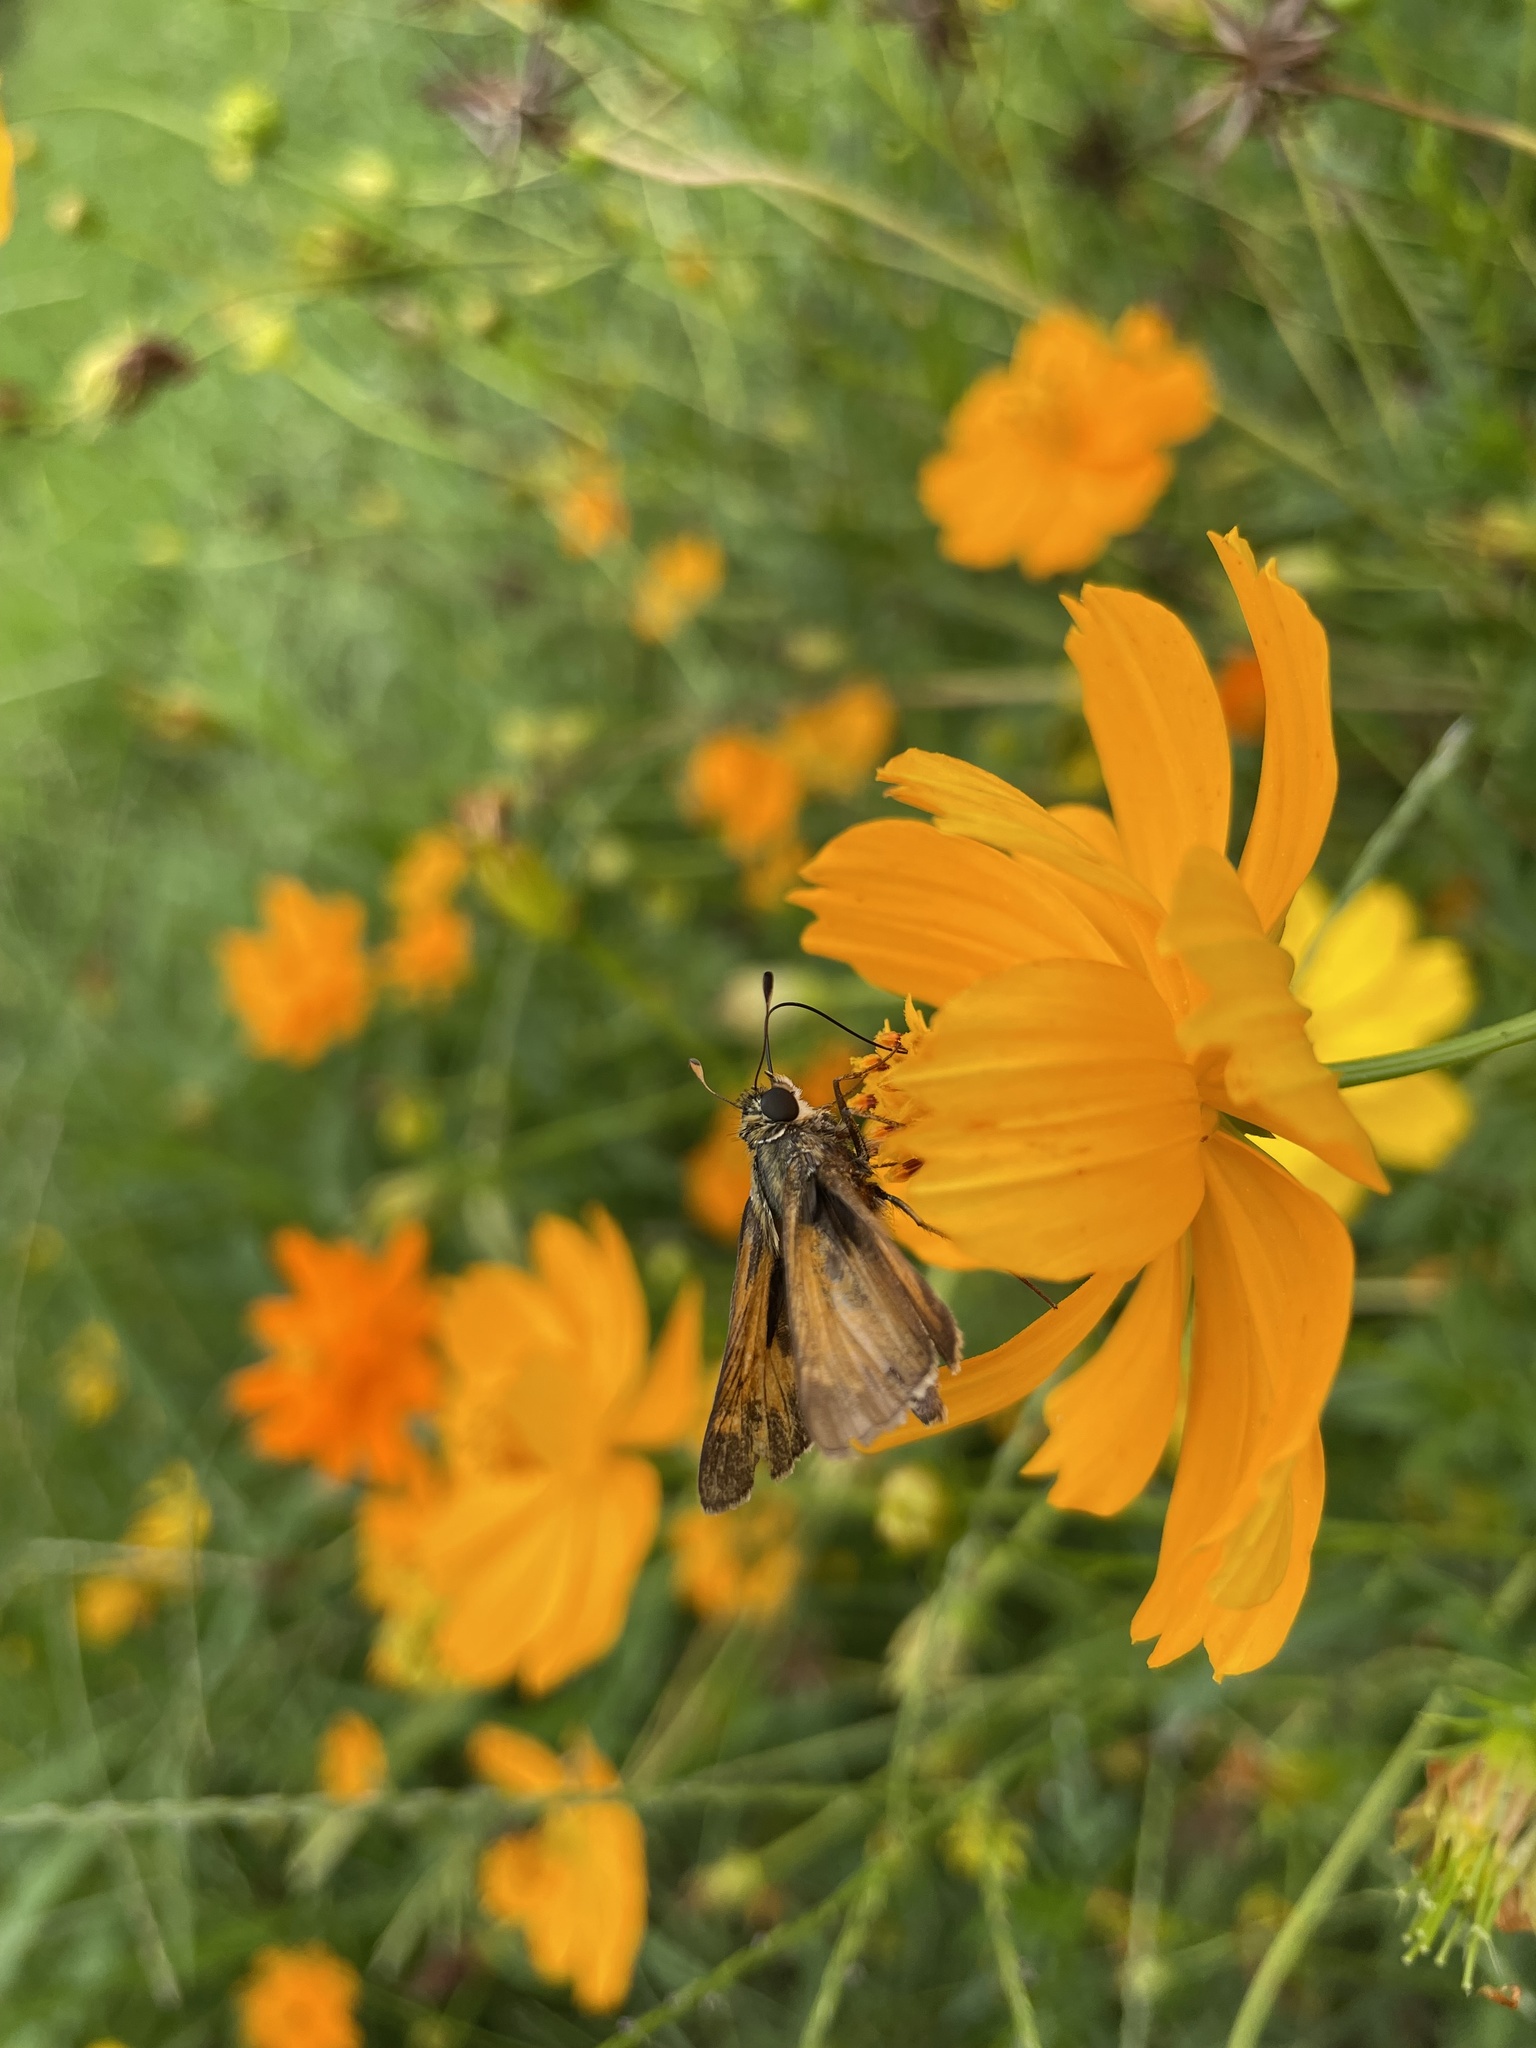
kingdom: Animalia
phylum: Arthropoda
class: Insecta
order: Lepidoptera
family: Hesperiidae
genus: Atalopedes
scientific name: Atalopedes
